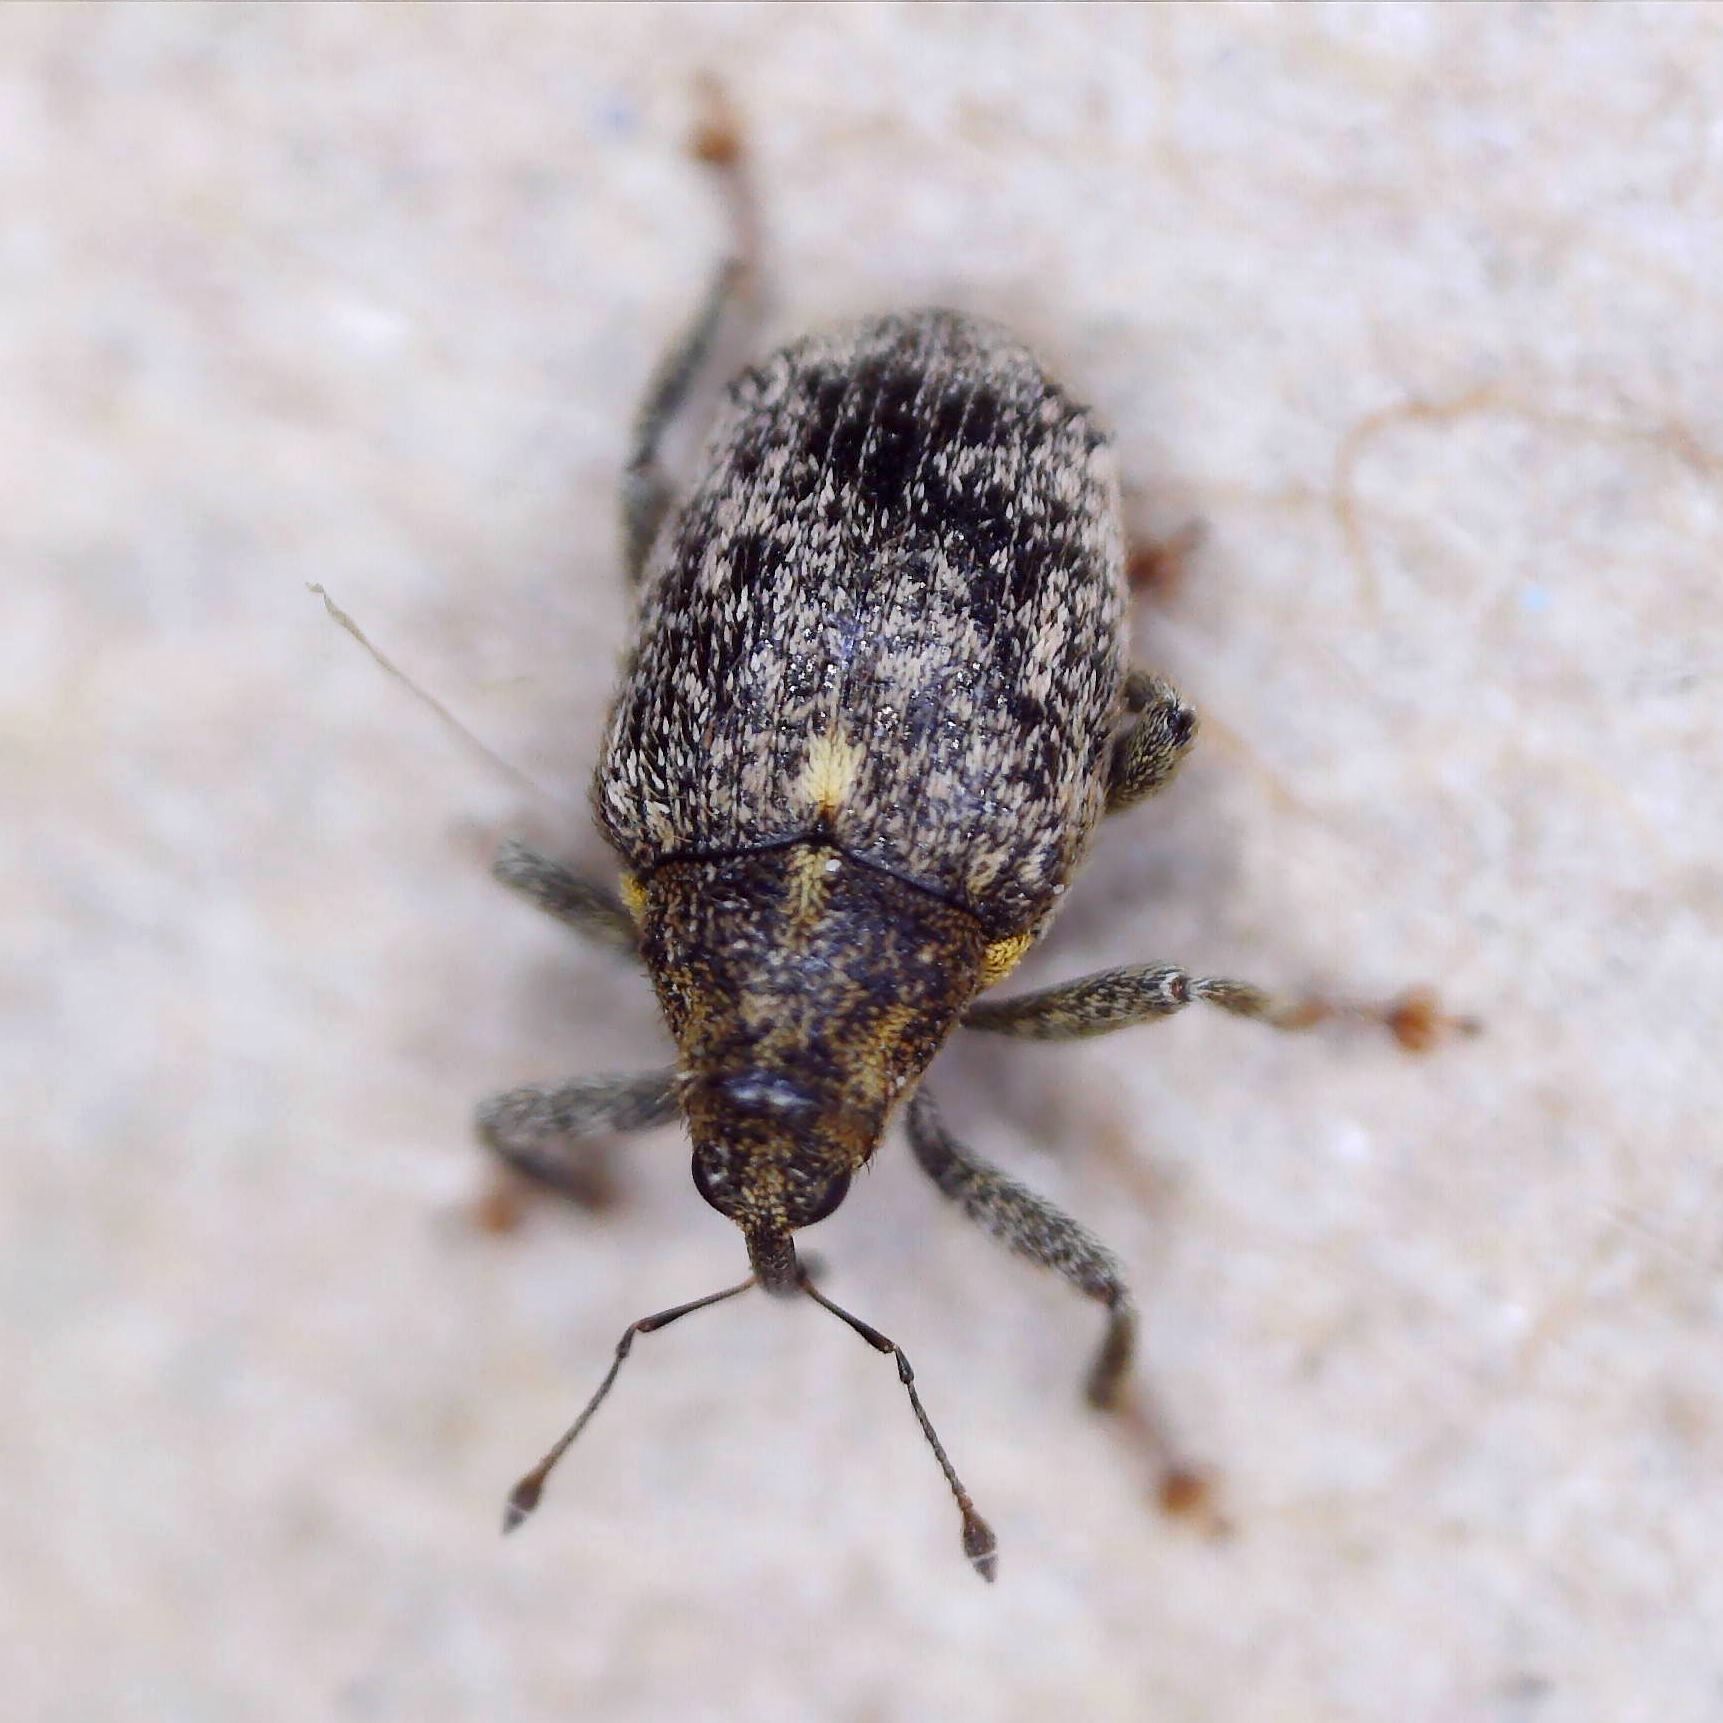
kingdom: Animalia
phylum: Arthropoda
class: Insecta
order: Coleoptera
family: Curculionidae
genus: Ceutorhynchus
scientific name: Ceutorhynchus pallidactylus
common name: Cabbage stem weavil
